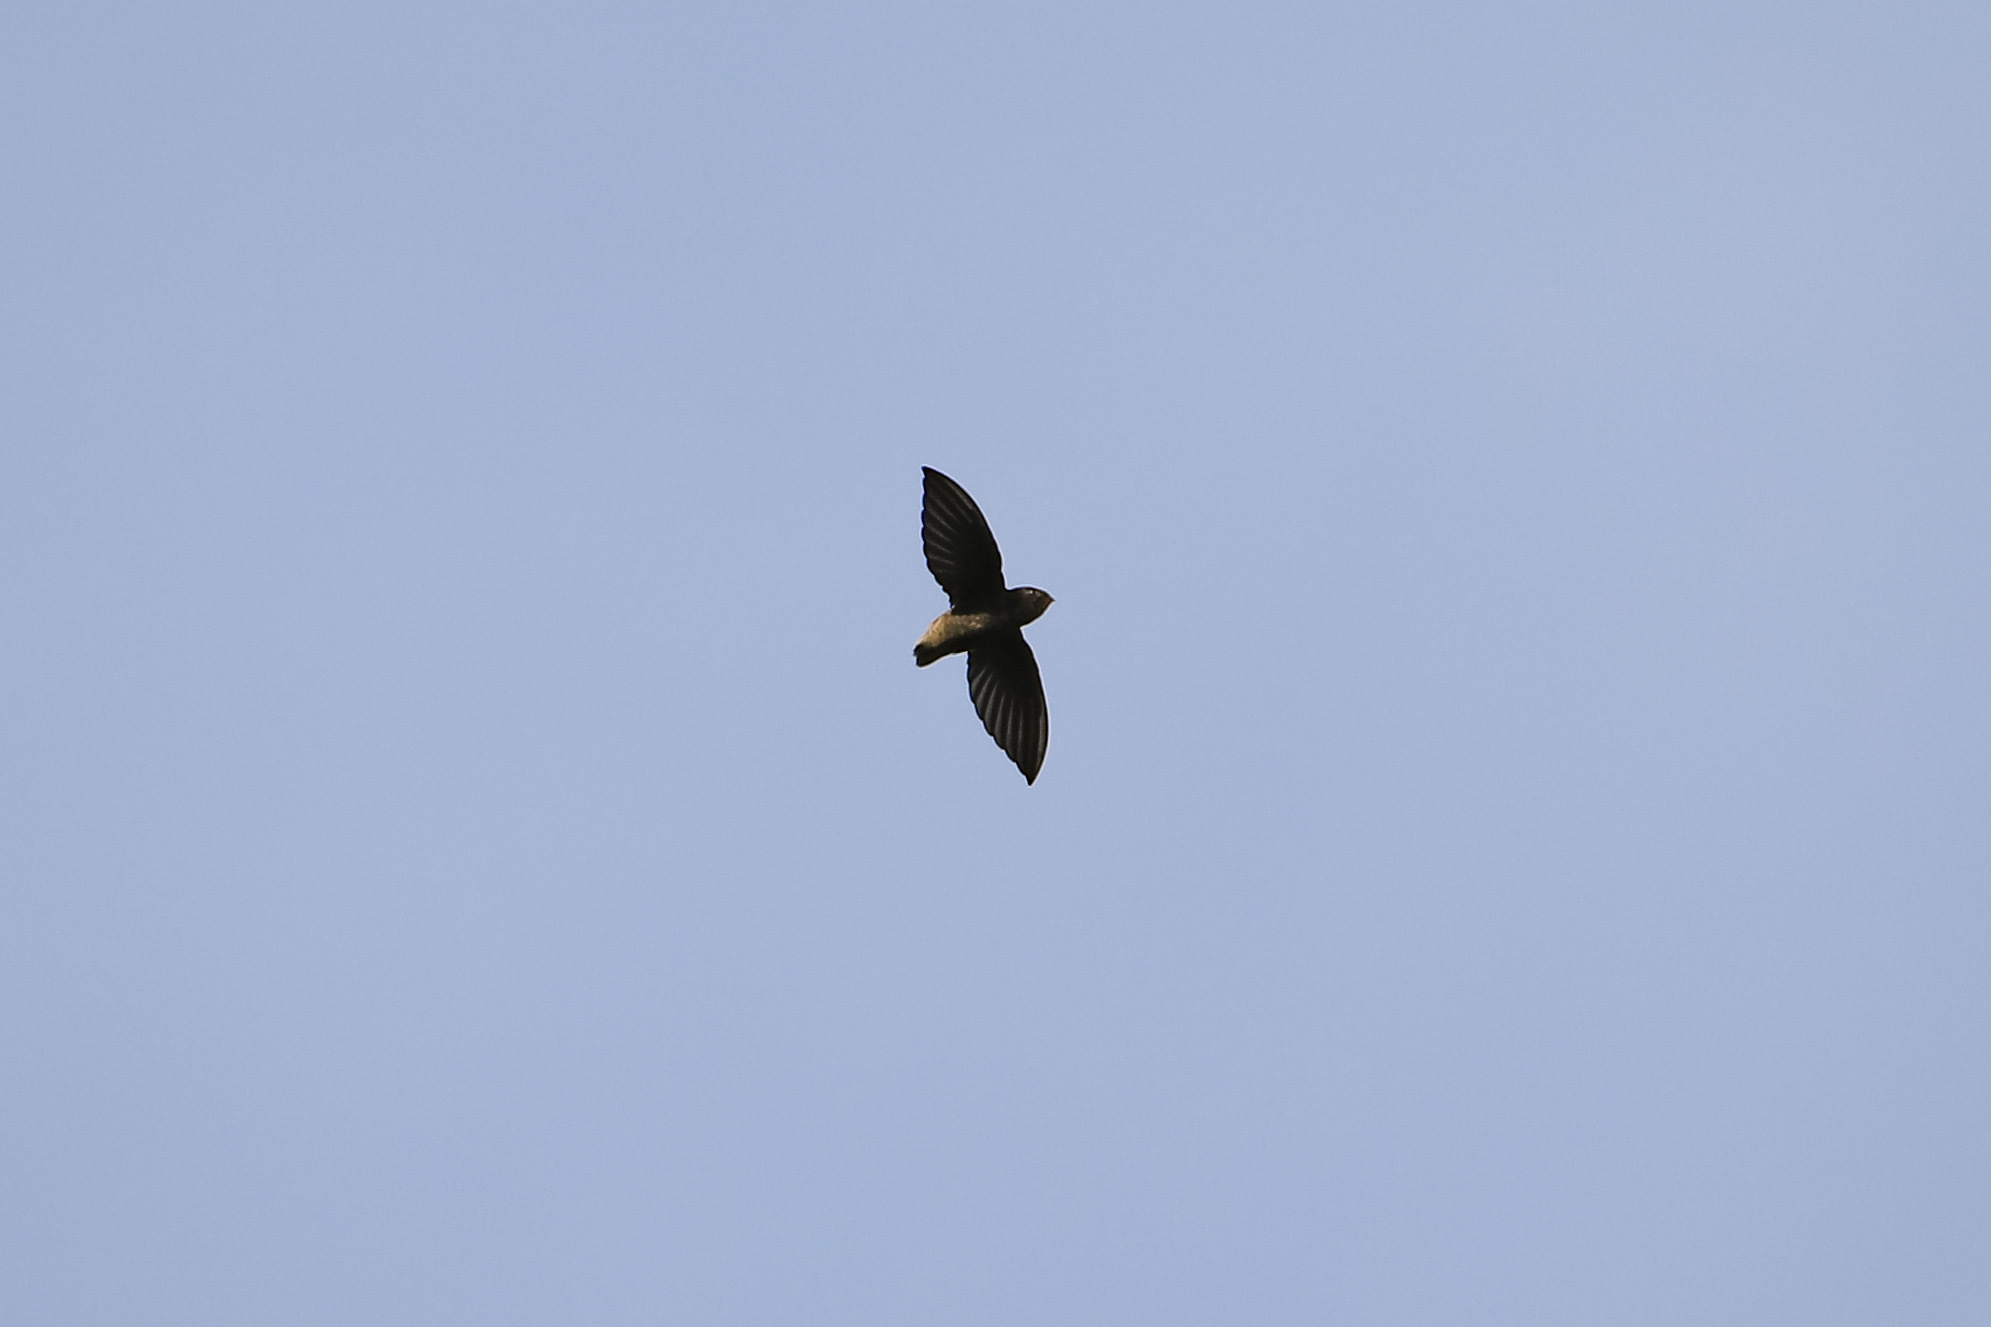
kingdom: Animalia
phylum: Chordata
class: Aves
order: Apodiformes
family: Apodidae
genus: Chaetura
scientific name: Chaetura brachyura
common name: Short-tailed swift
